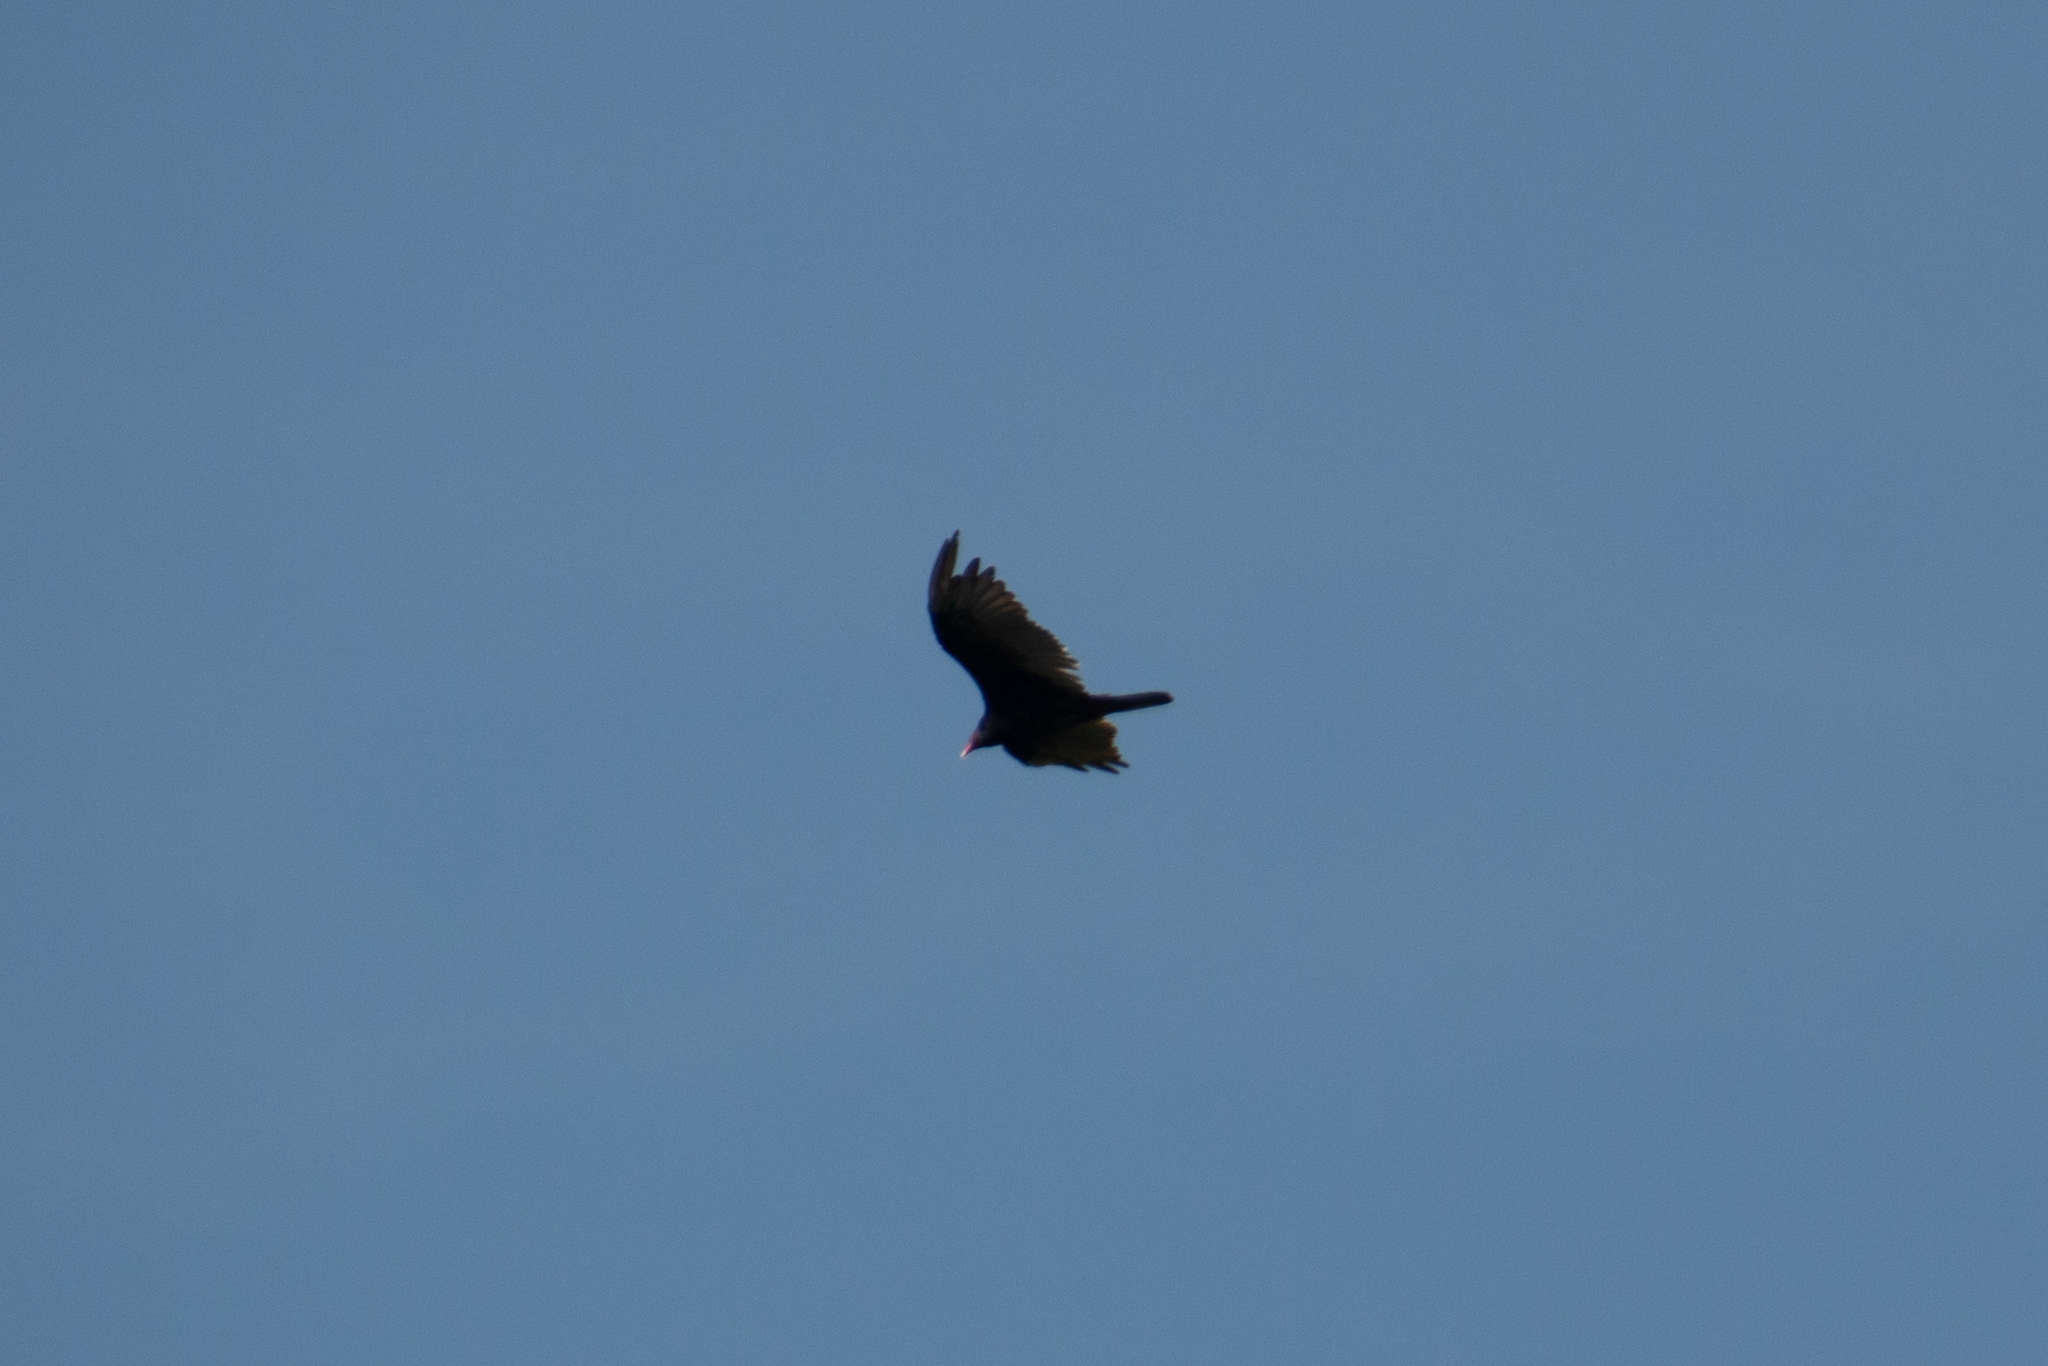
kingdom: Animalia
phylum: Chordata
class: Aves
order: Accipitriformes
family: Cathartidae
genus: Cathartes
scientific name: Cathartes aura
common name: Turkey vulture
